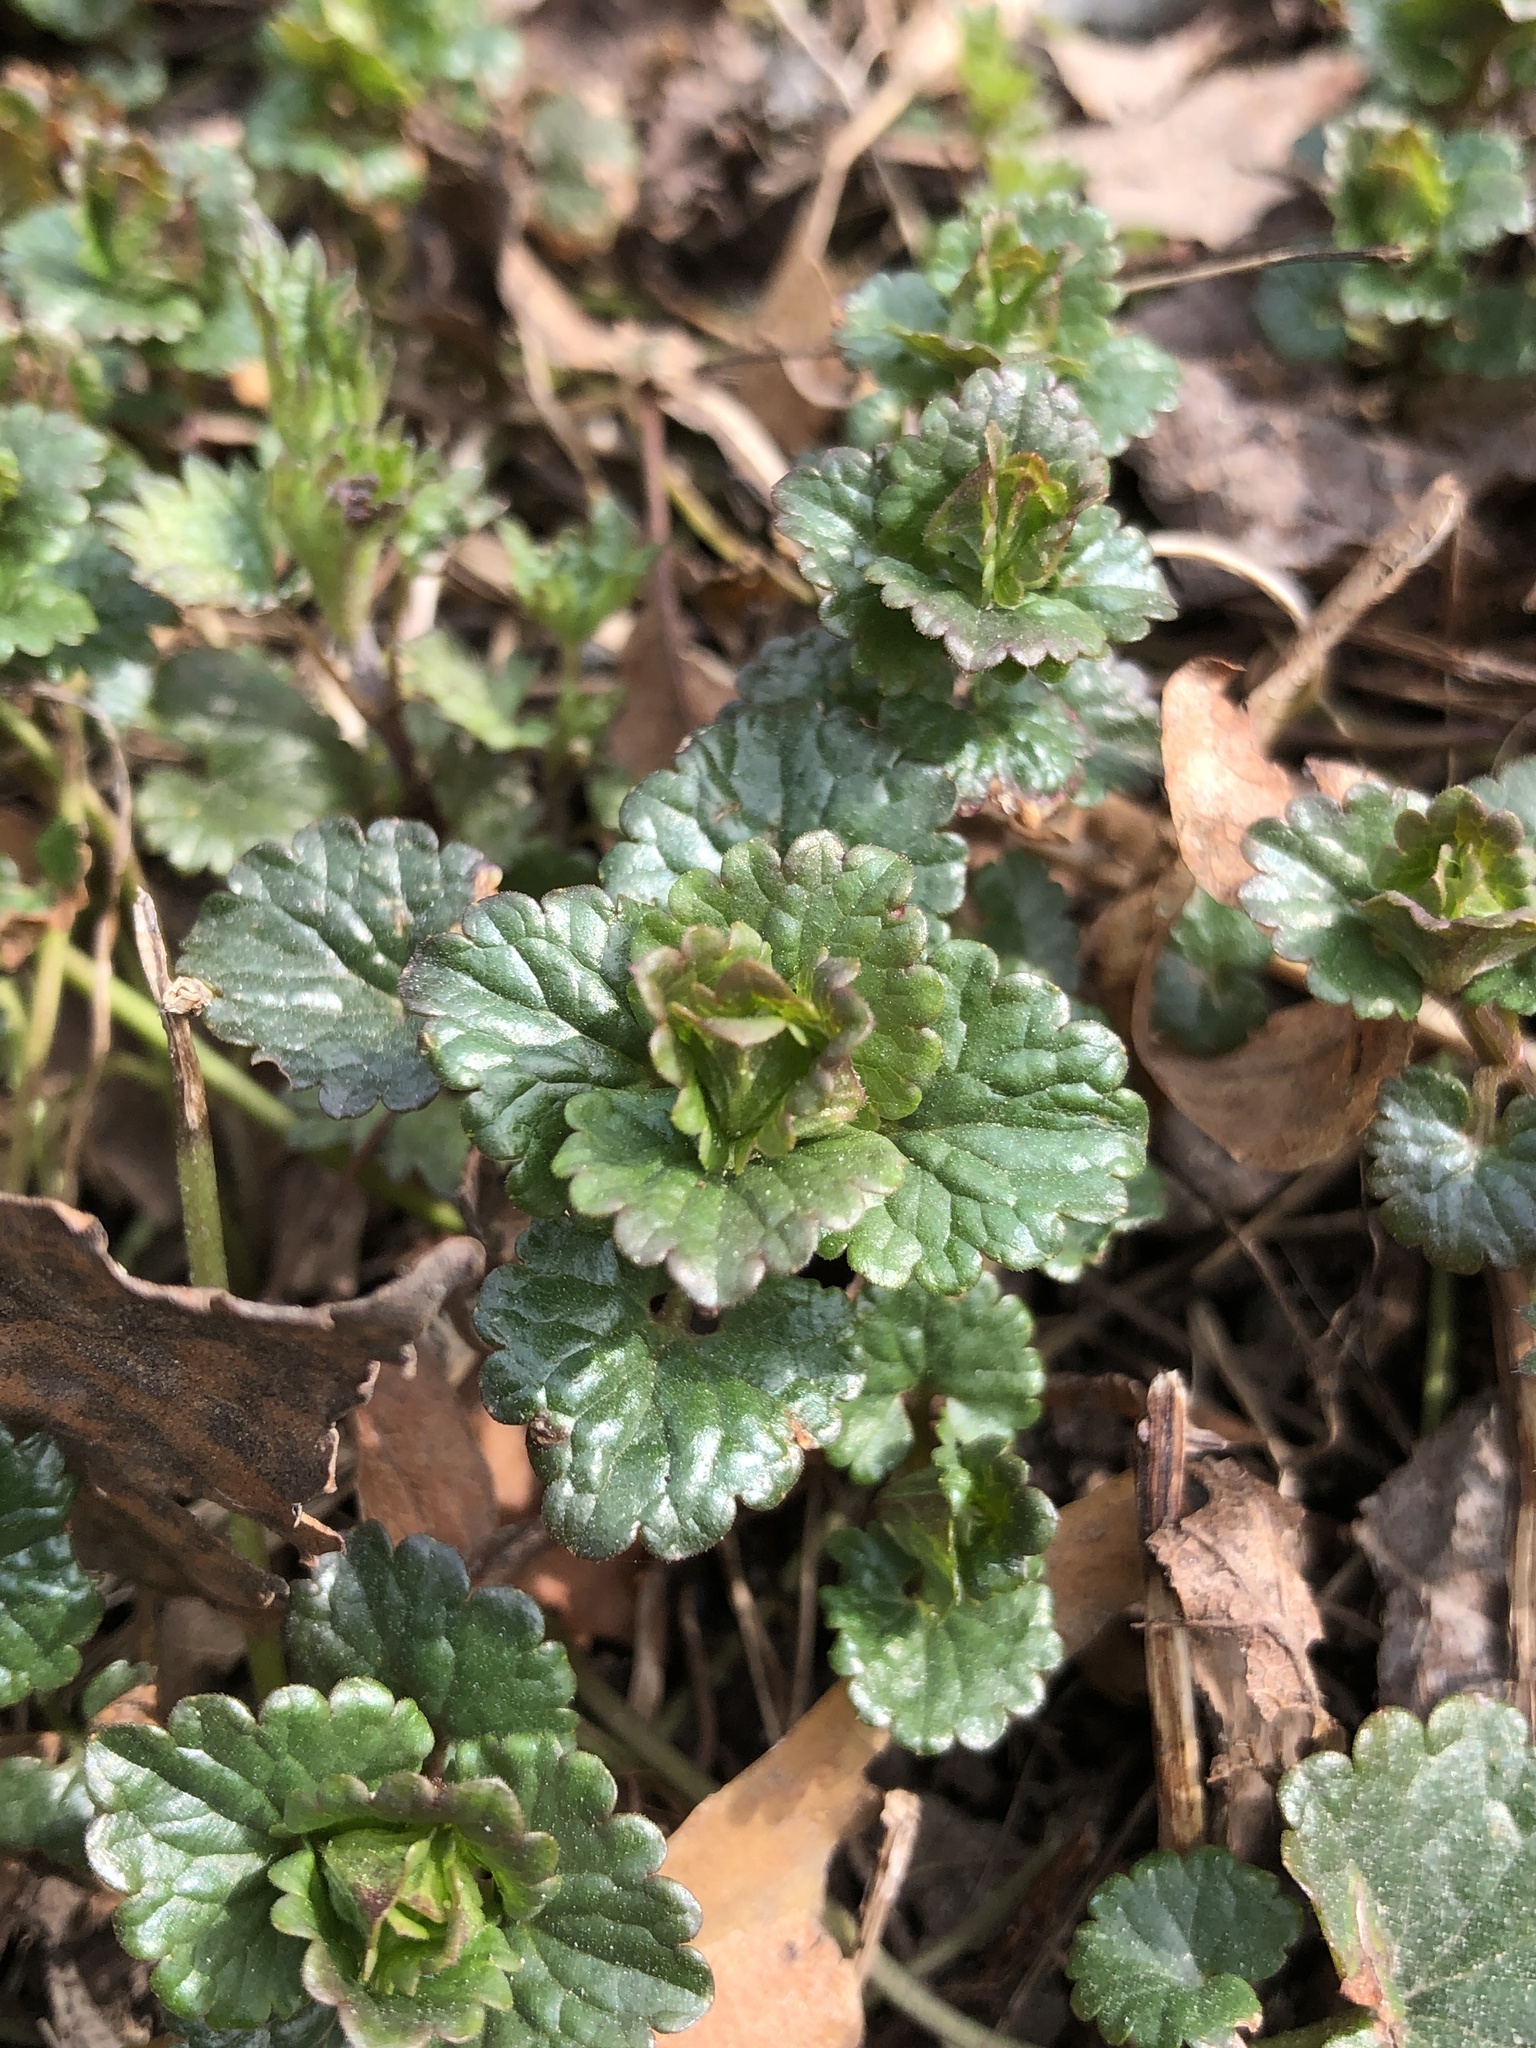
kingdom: Plantae
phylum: Tracheophyta
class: Magnoliopsida
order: Lamiales
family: Lamiaceae
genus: Glechoma
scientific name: Glechoma hederacea
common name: Ground ivy
